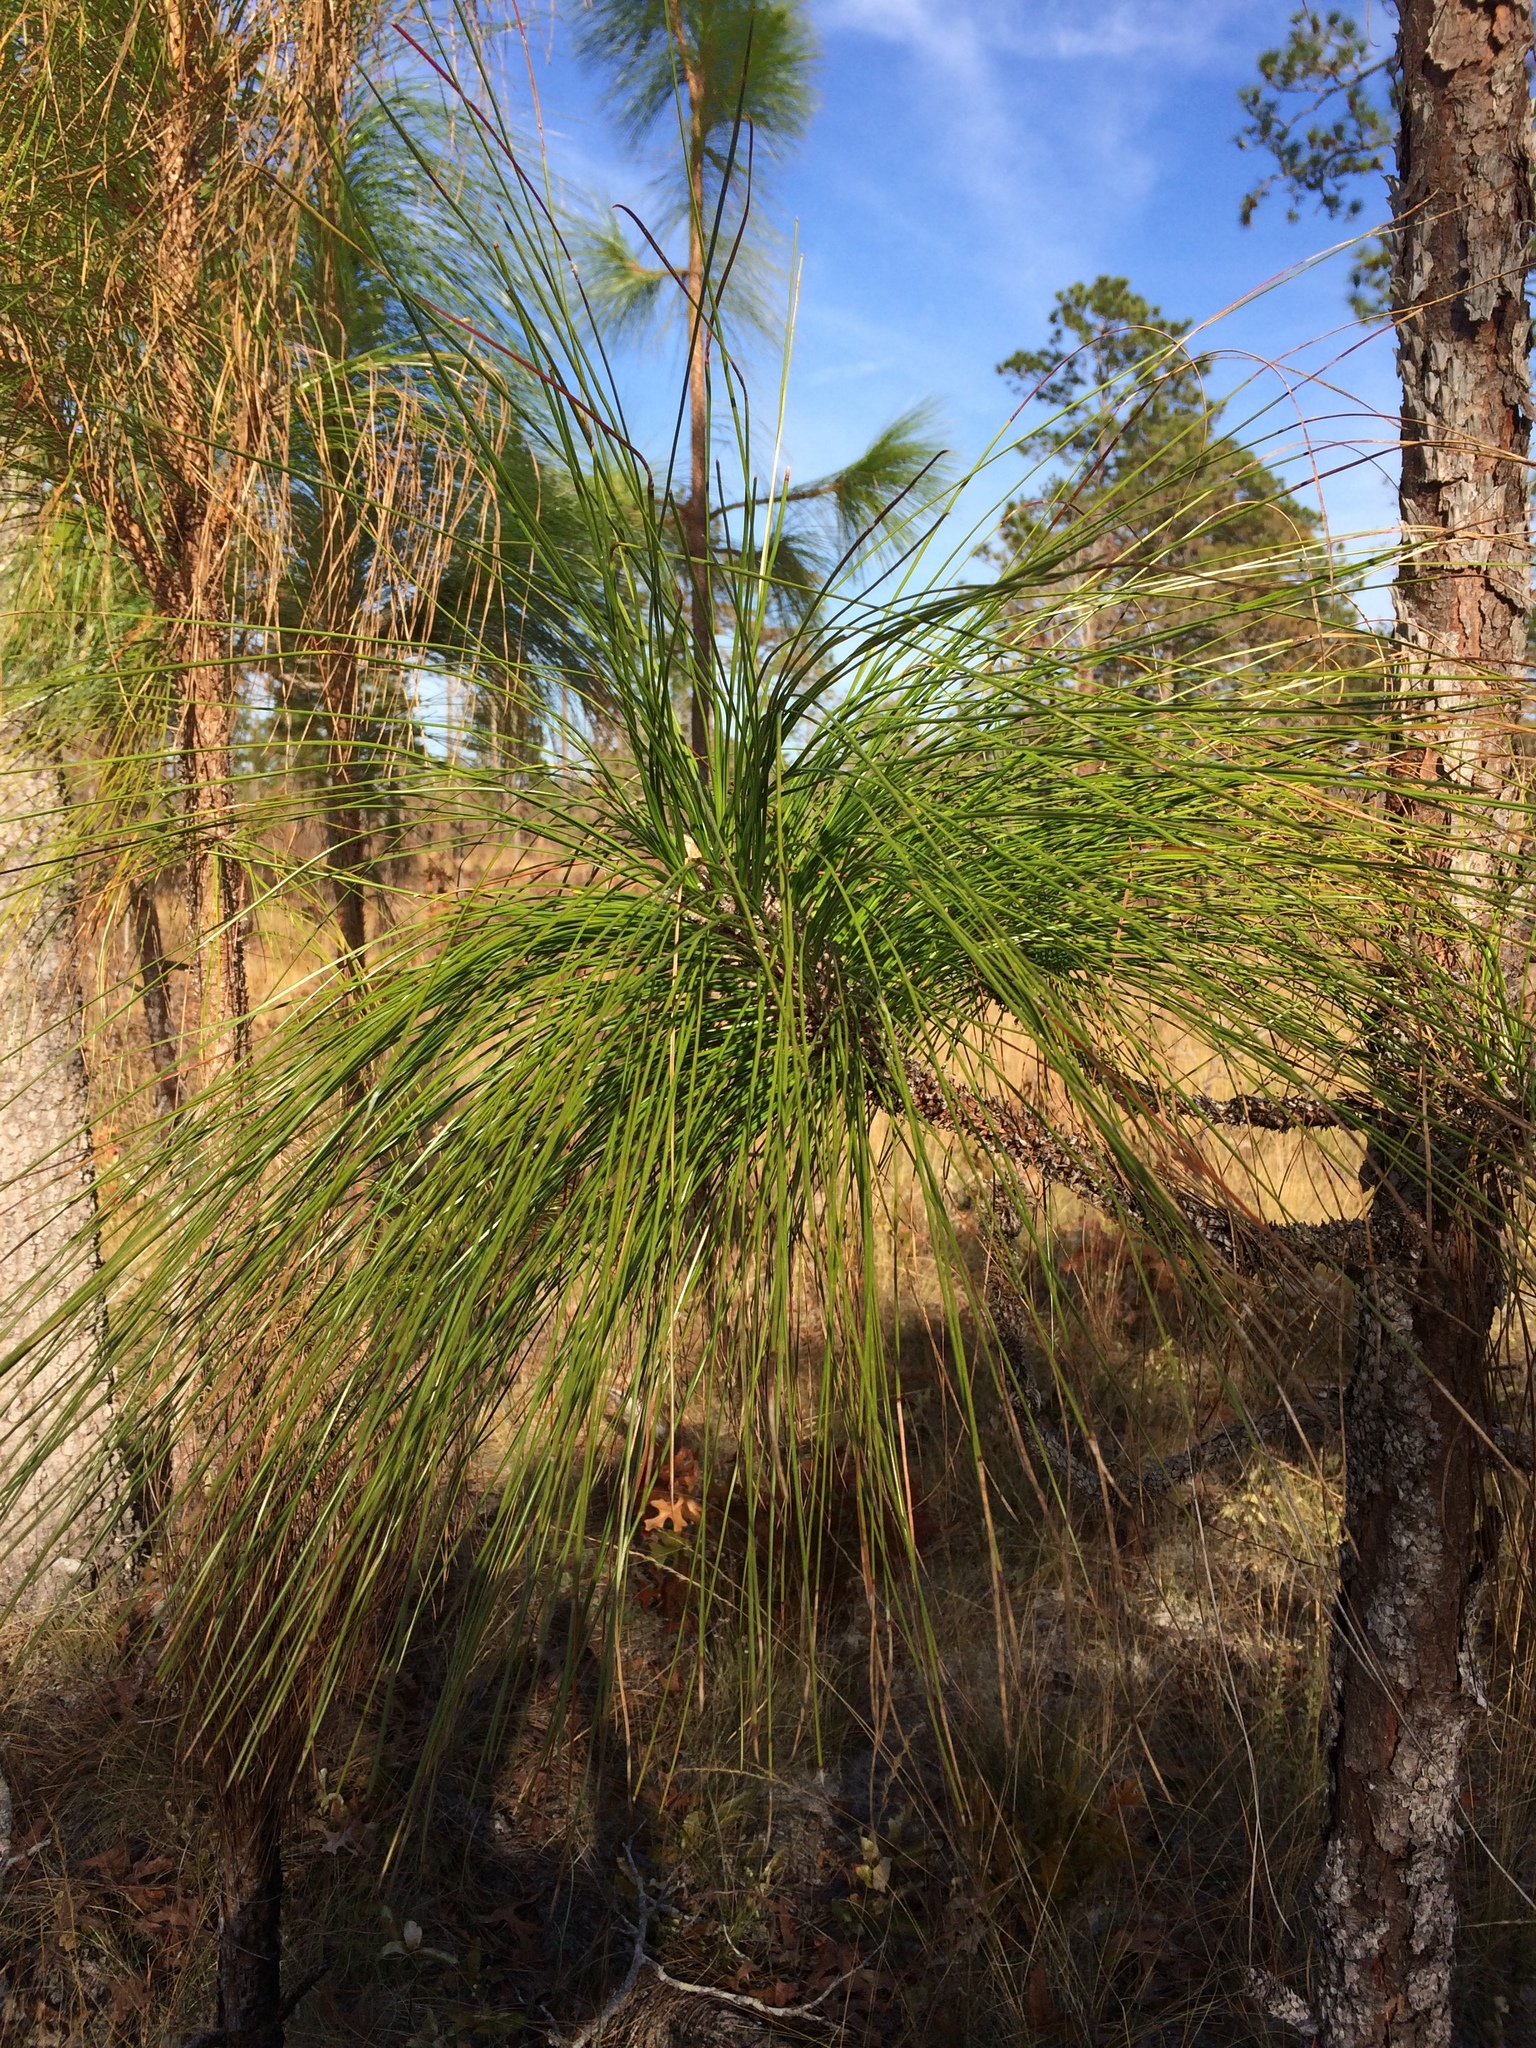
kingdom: Plantae
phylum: Tracheophyta
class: Pinopsida
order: Pinales
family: Pinaceae
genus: Pinus
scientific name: Pinus palustris
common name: Longleaf pine
